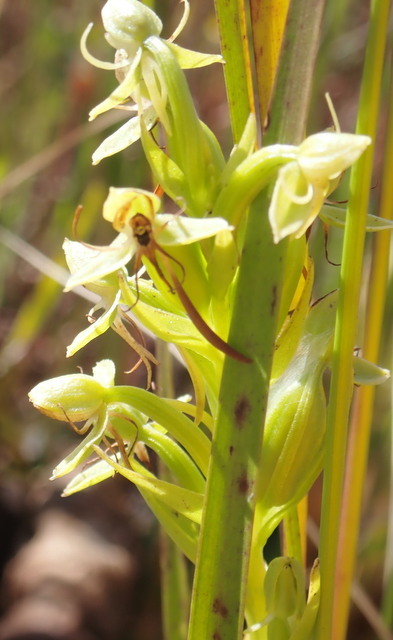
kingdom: Plantae
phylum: Tracheophyta
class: Liliopsida
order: Asparagales
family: Orchidaceae
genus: Habenaria
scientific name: Habenaria repens
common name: Water orchid
